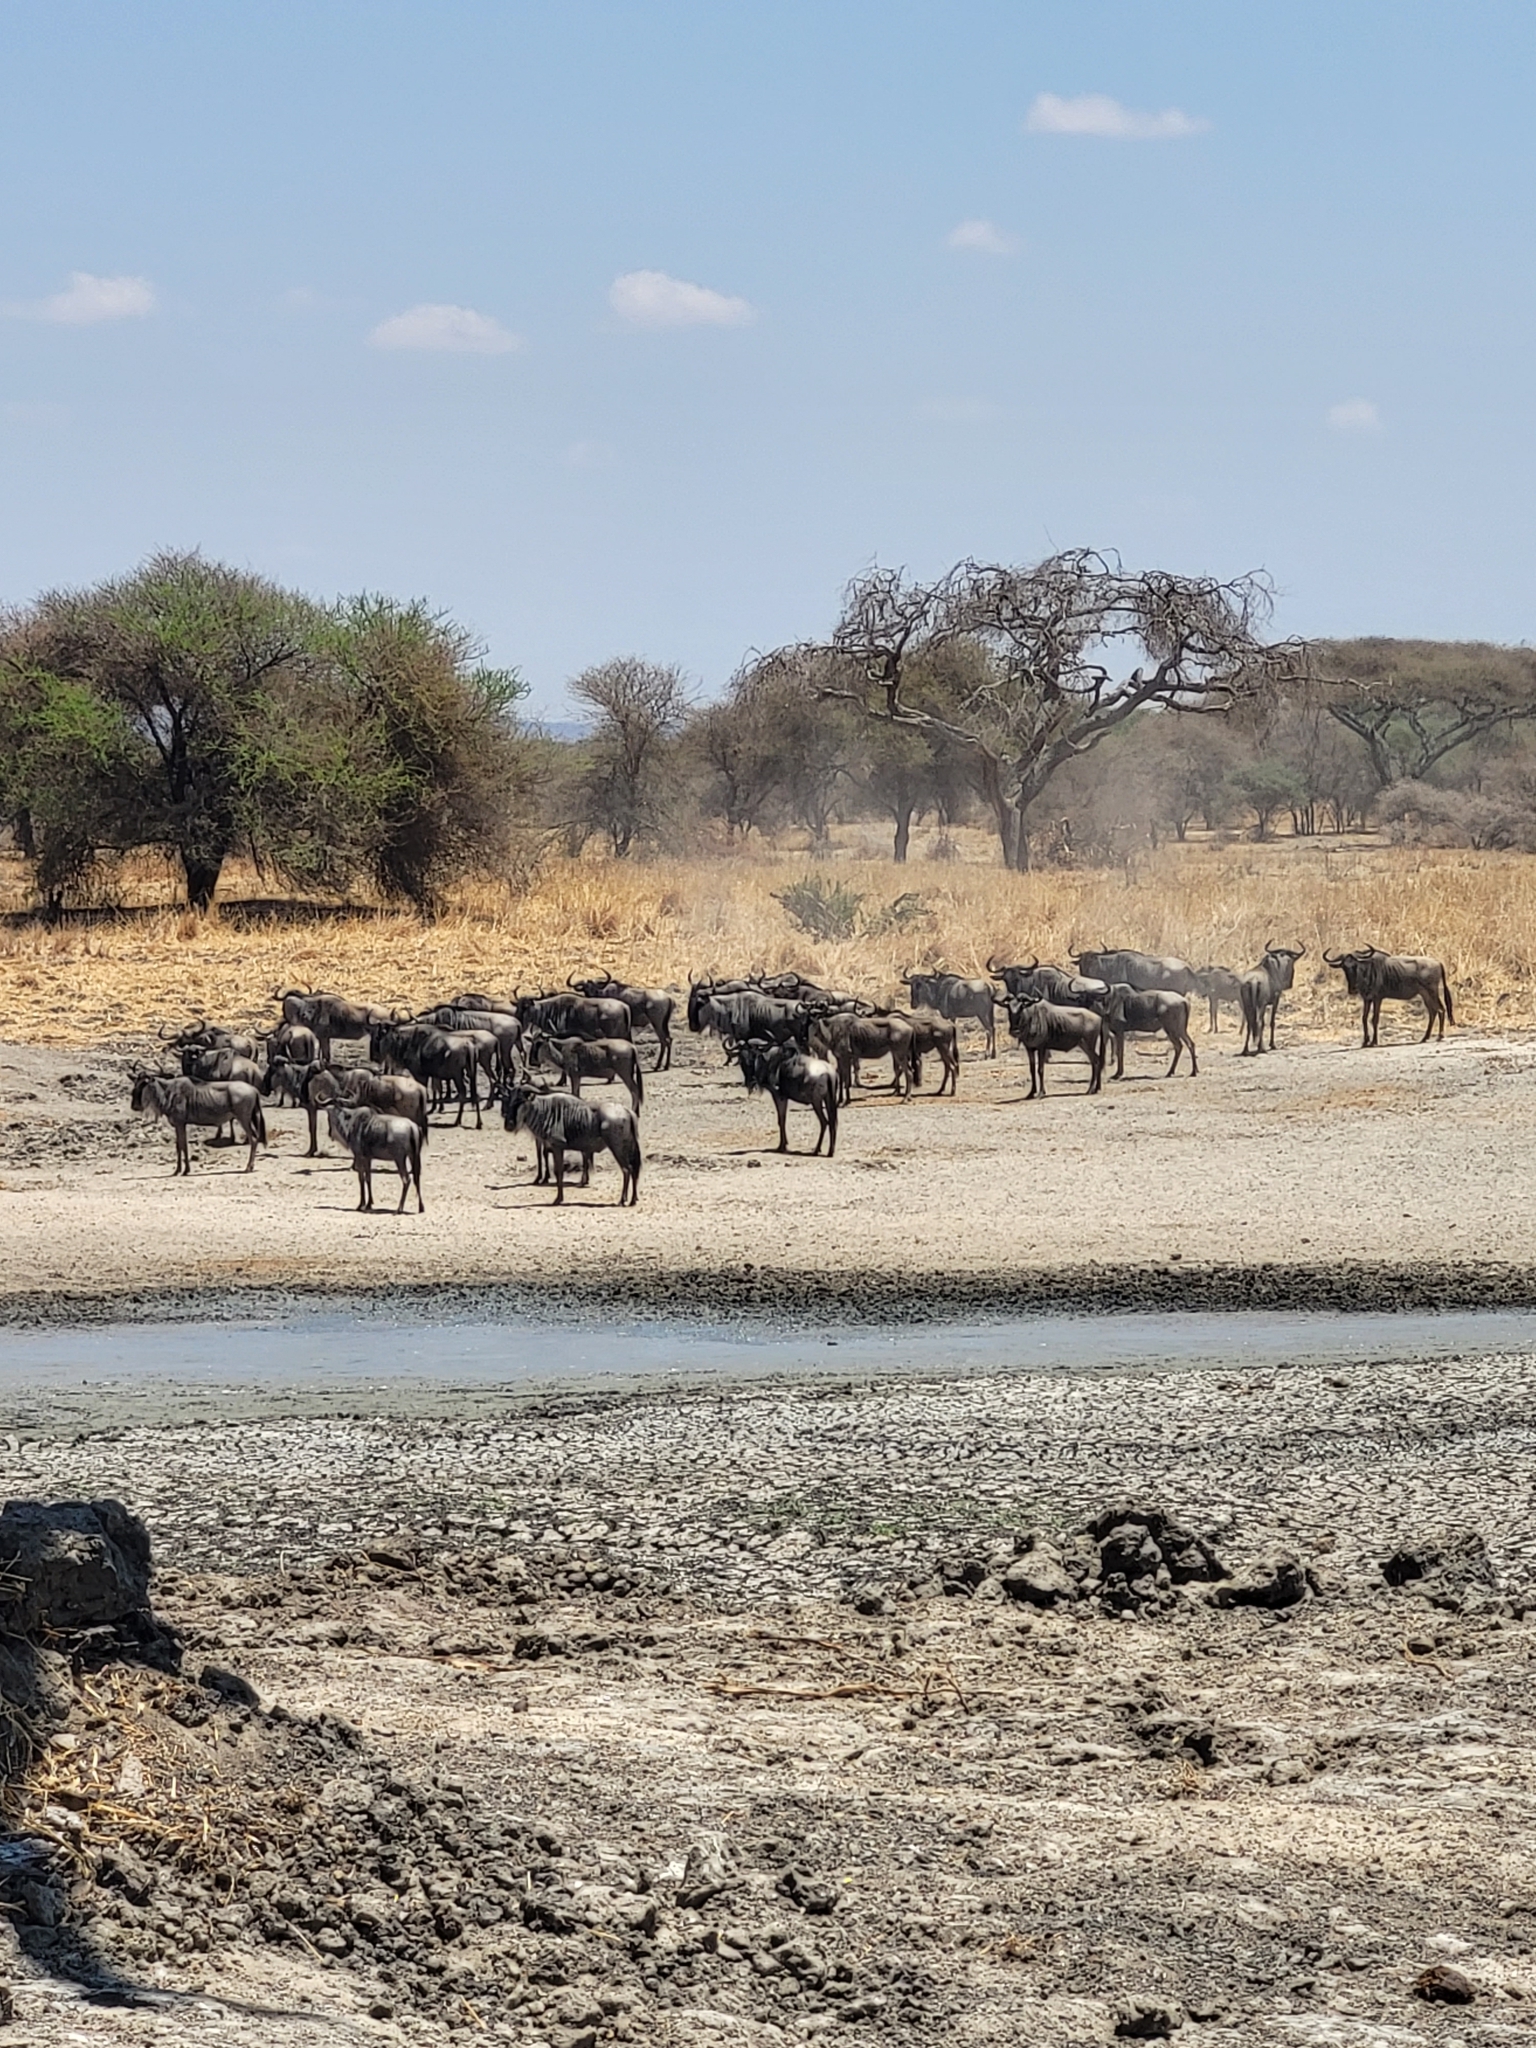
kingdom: Animalia
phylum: Chordata
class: Mammalia
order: Artiodactyla
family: Bovidae
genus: Connochaetes
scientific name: Connochaetes taurinus
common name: Blue wildebeest
